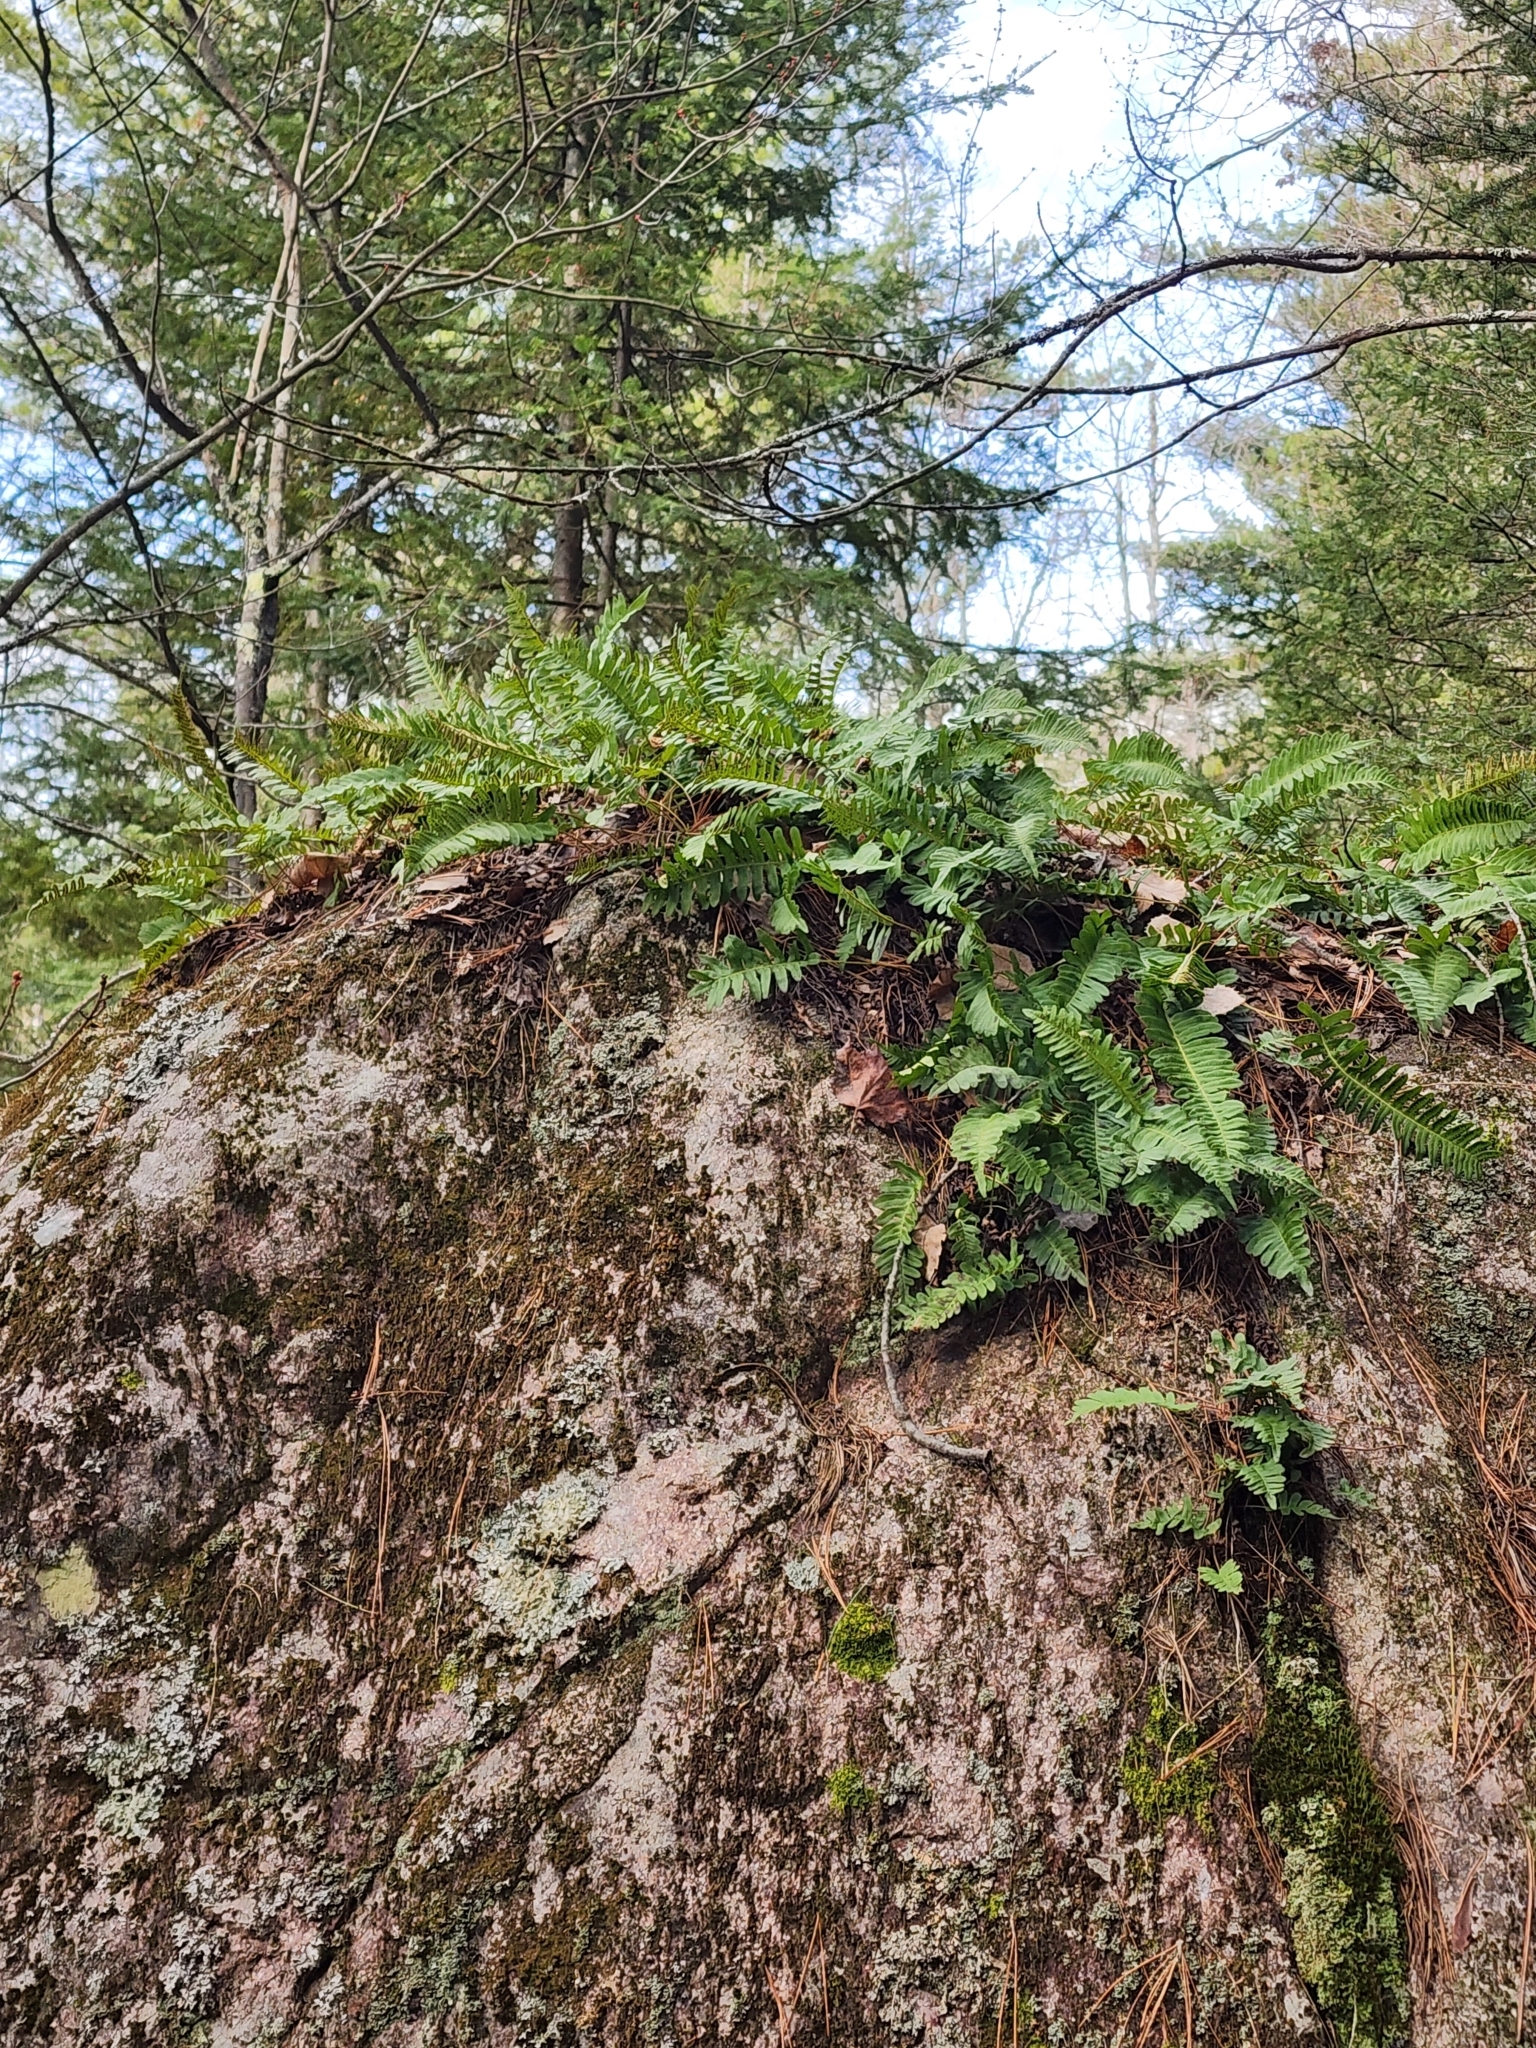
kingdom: Plantae
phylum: Tracheophyta
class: Polypodiopsida
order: Polypodiales
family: Polypodiaceae
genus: Polypodium
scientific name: Polypodium virginianum
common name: American wall fern
